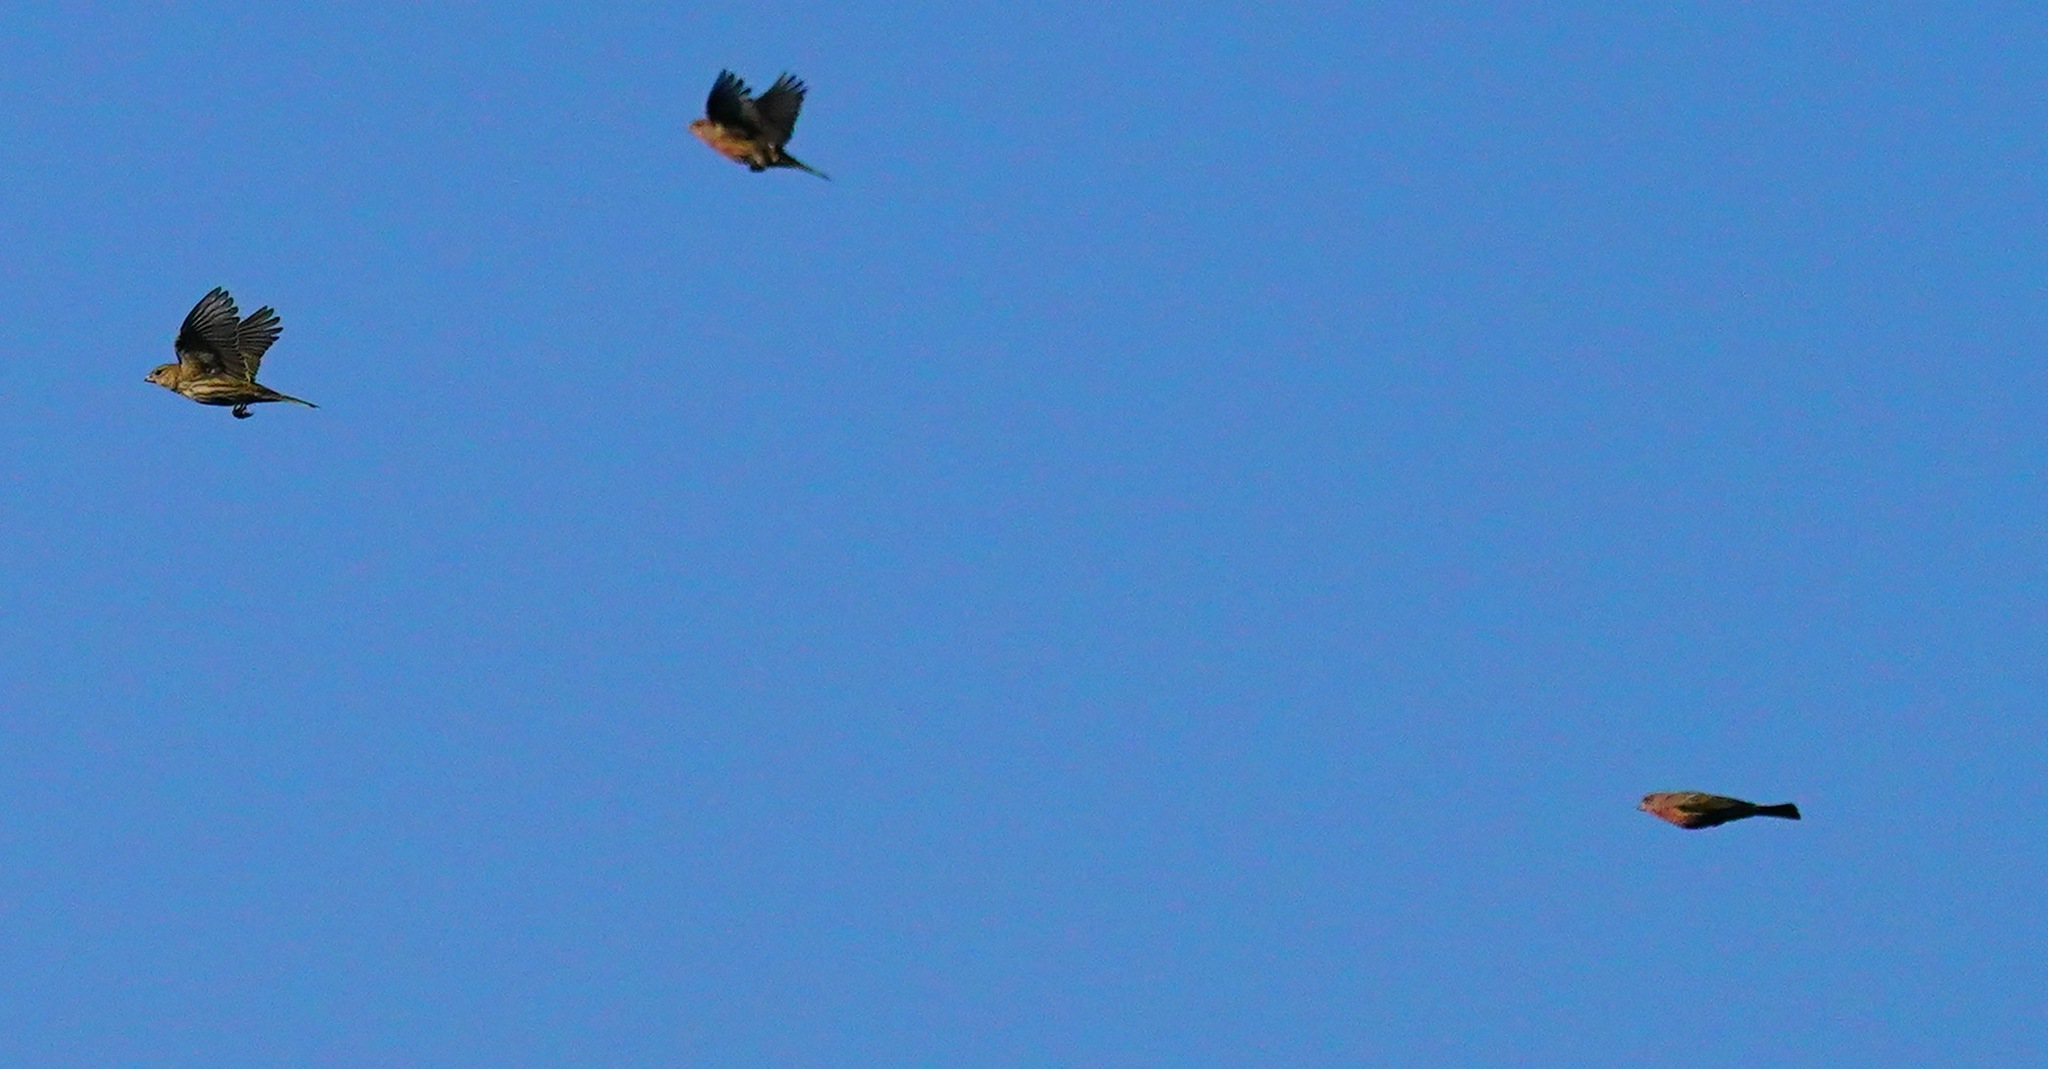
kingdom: Animalia
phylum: Chordata
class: Aves
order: Passeriformes
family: Fringillidae
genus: Haemorhous
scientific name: Haemorhous mexicanus
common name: House finch
